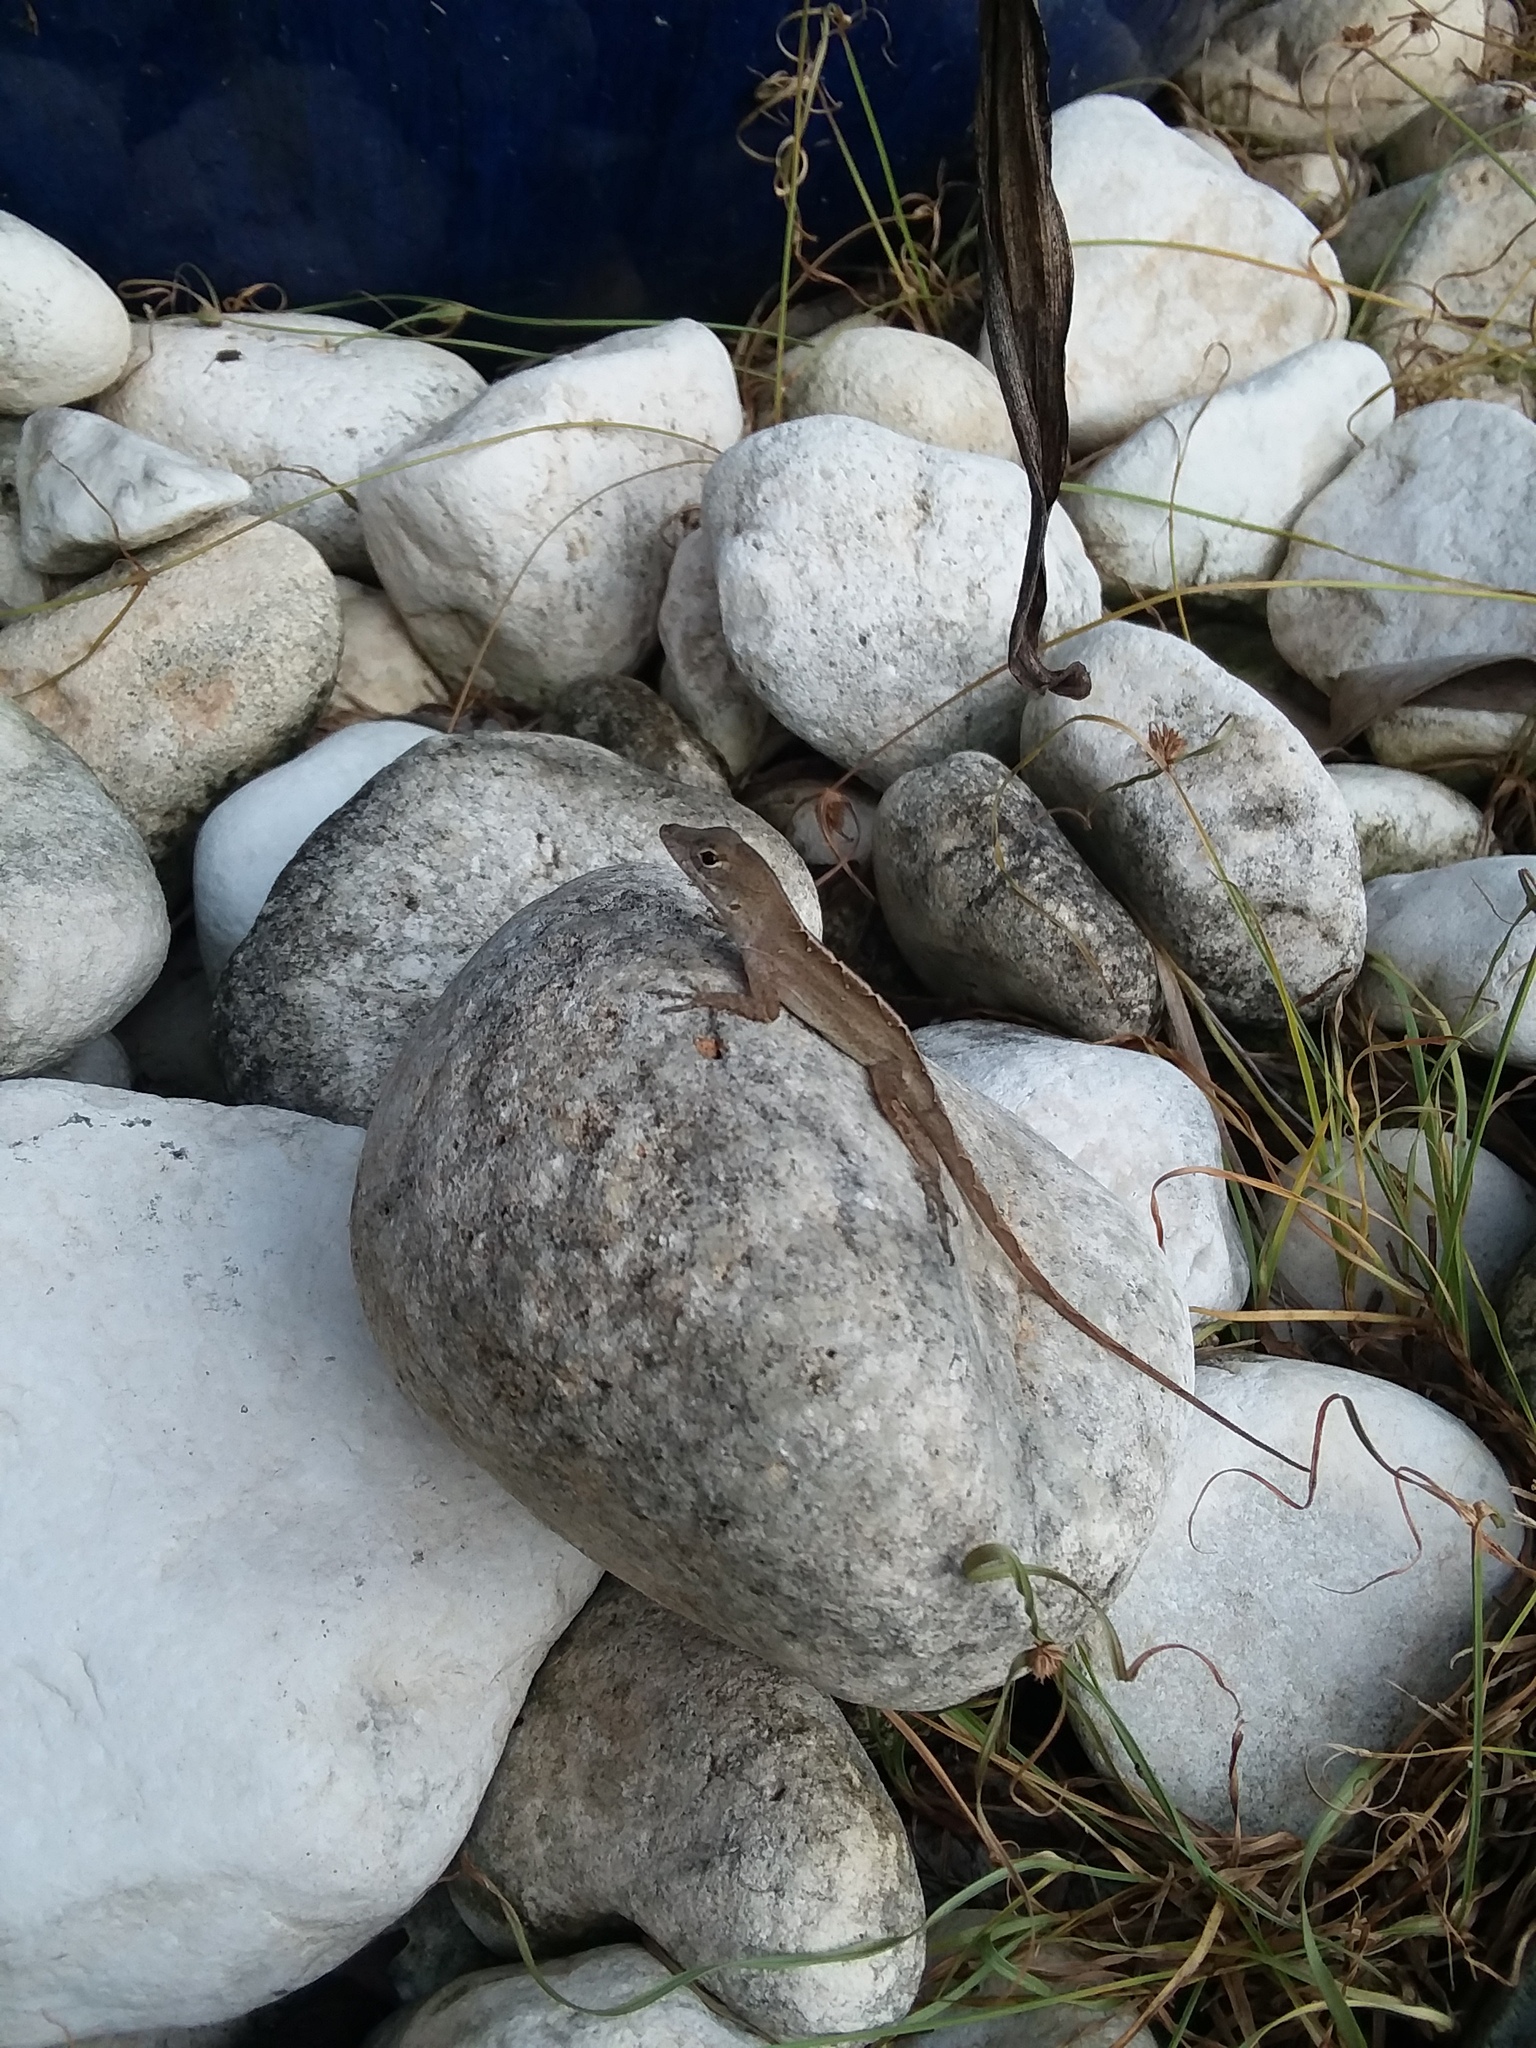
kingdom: Animalia
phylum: Chordata
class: Squamata
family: Dactyloidae
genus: Anolis
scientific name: Anolis sagrei
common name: Brown anole
